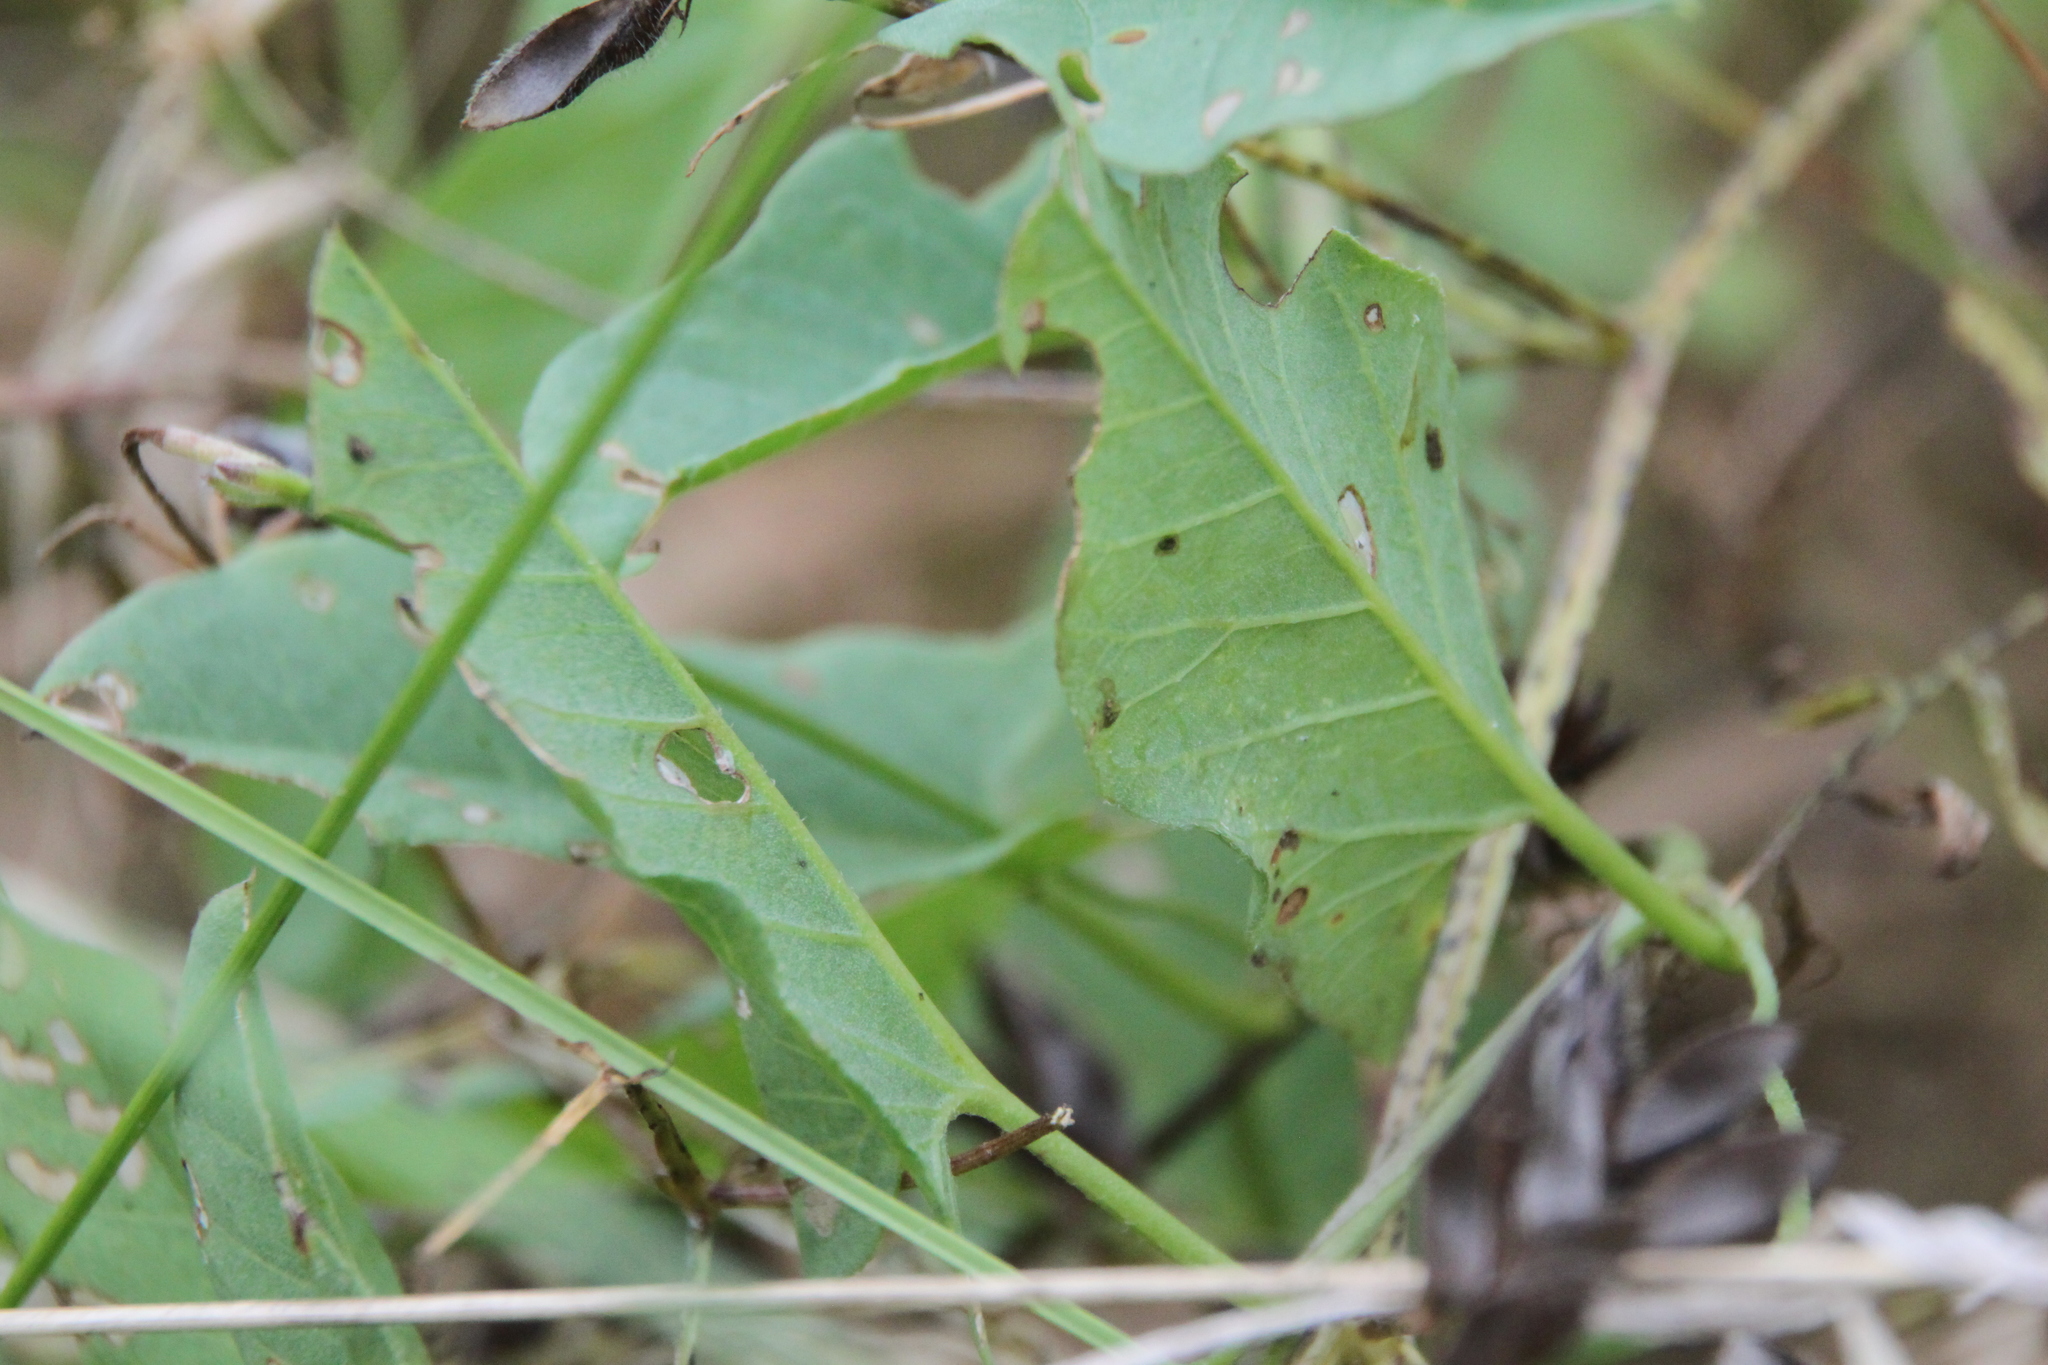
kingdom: Plantae
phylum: Tracheophyta
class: Magnoliopsida
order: Solanales
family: Convolvulaceae
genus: Convolvulus
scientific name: Convolvulus arvensis
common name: Field bindweed
